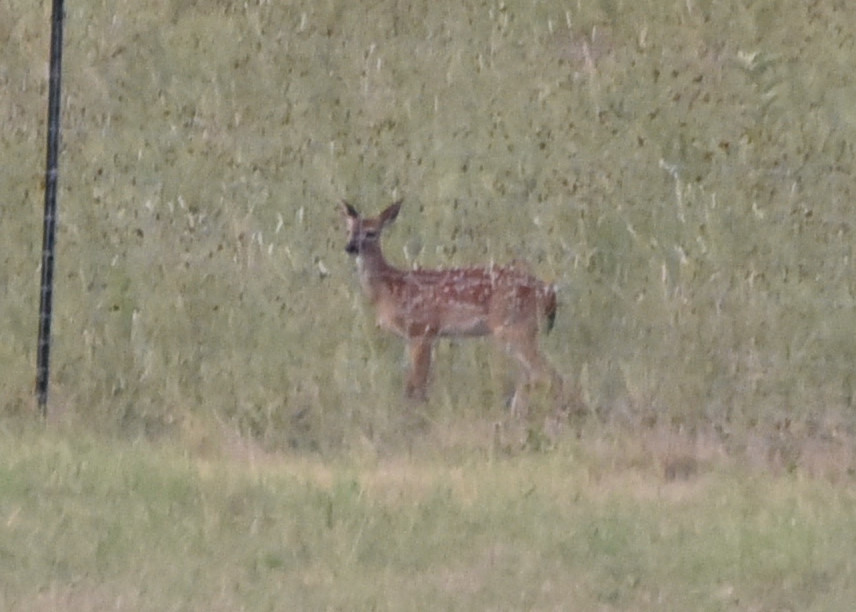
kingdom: Animalia
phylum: Chordata
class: Mammalia
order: Artiodactyla
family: Cervidae
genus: Odocoileus
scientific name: Odocoileus virginianus
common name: White-tailed deer
